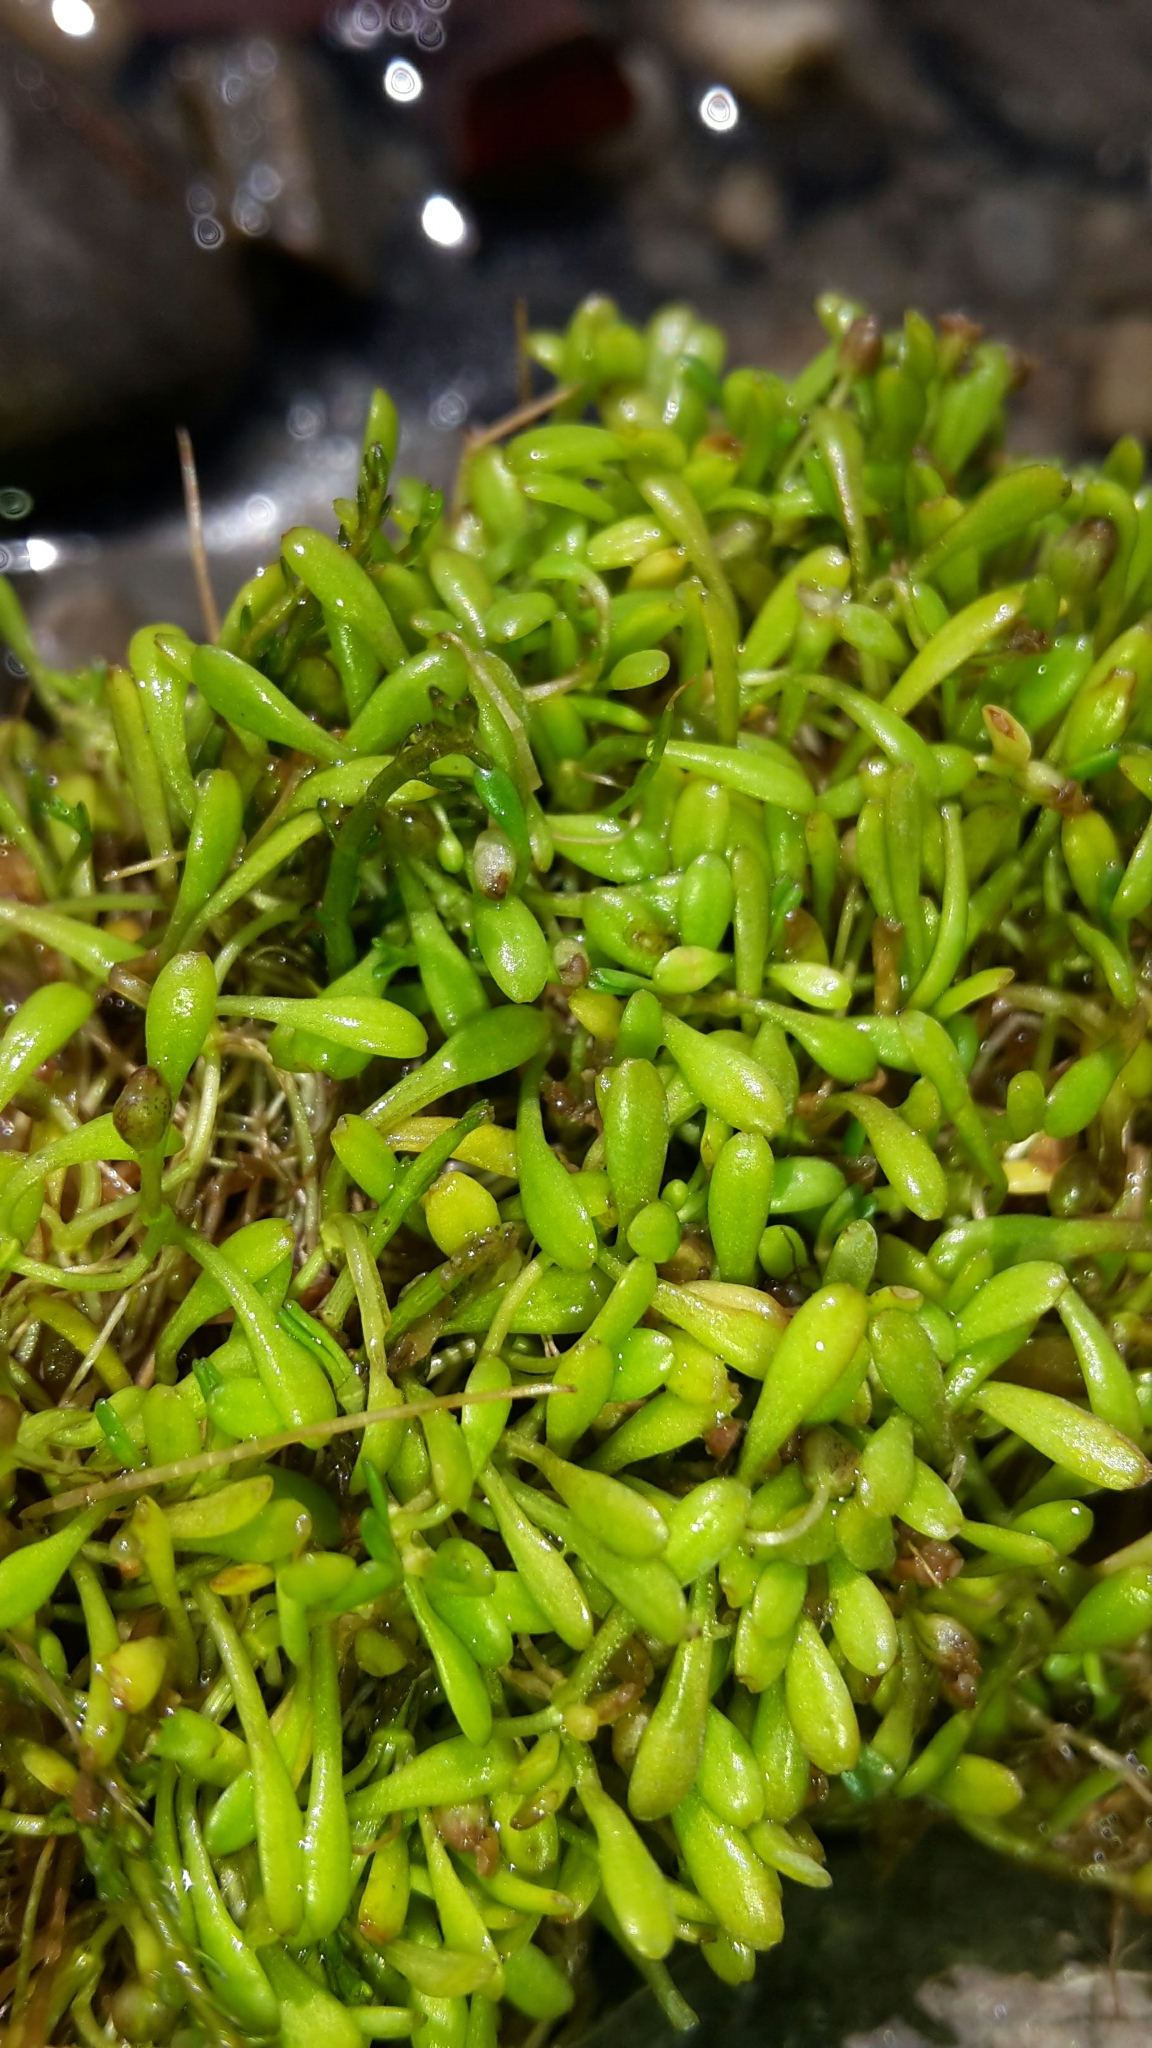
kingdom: Plantae
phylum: Tracheophyta
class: Magnoliopsida
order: Lamiales
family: Phrymaceae
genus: Glossostigma
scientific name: Glossostigma elatinoides
